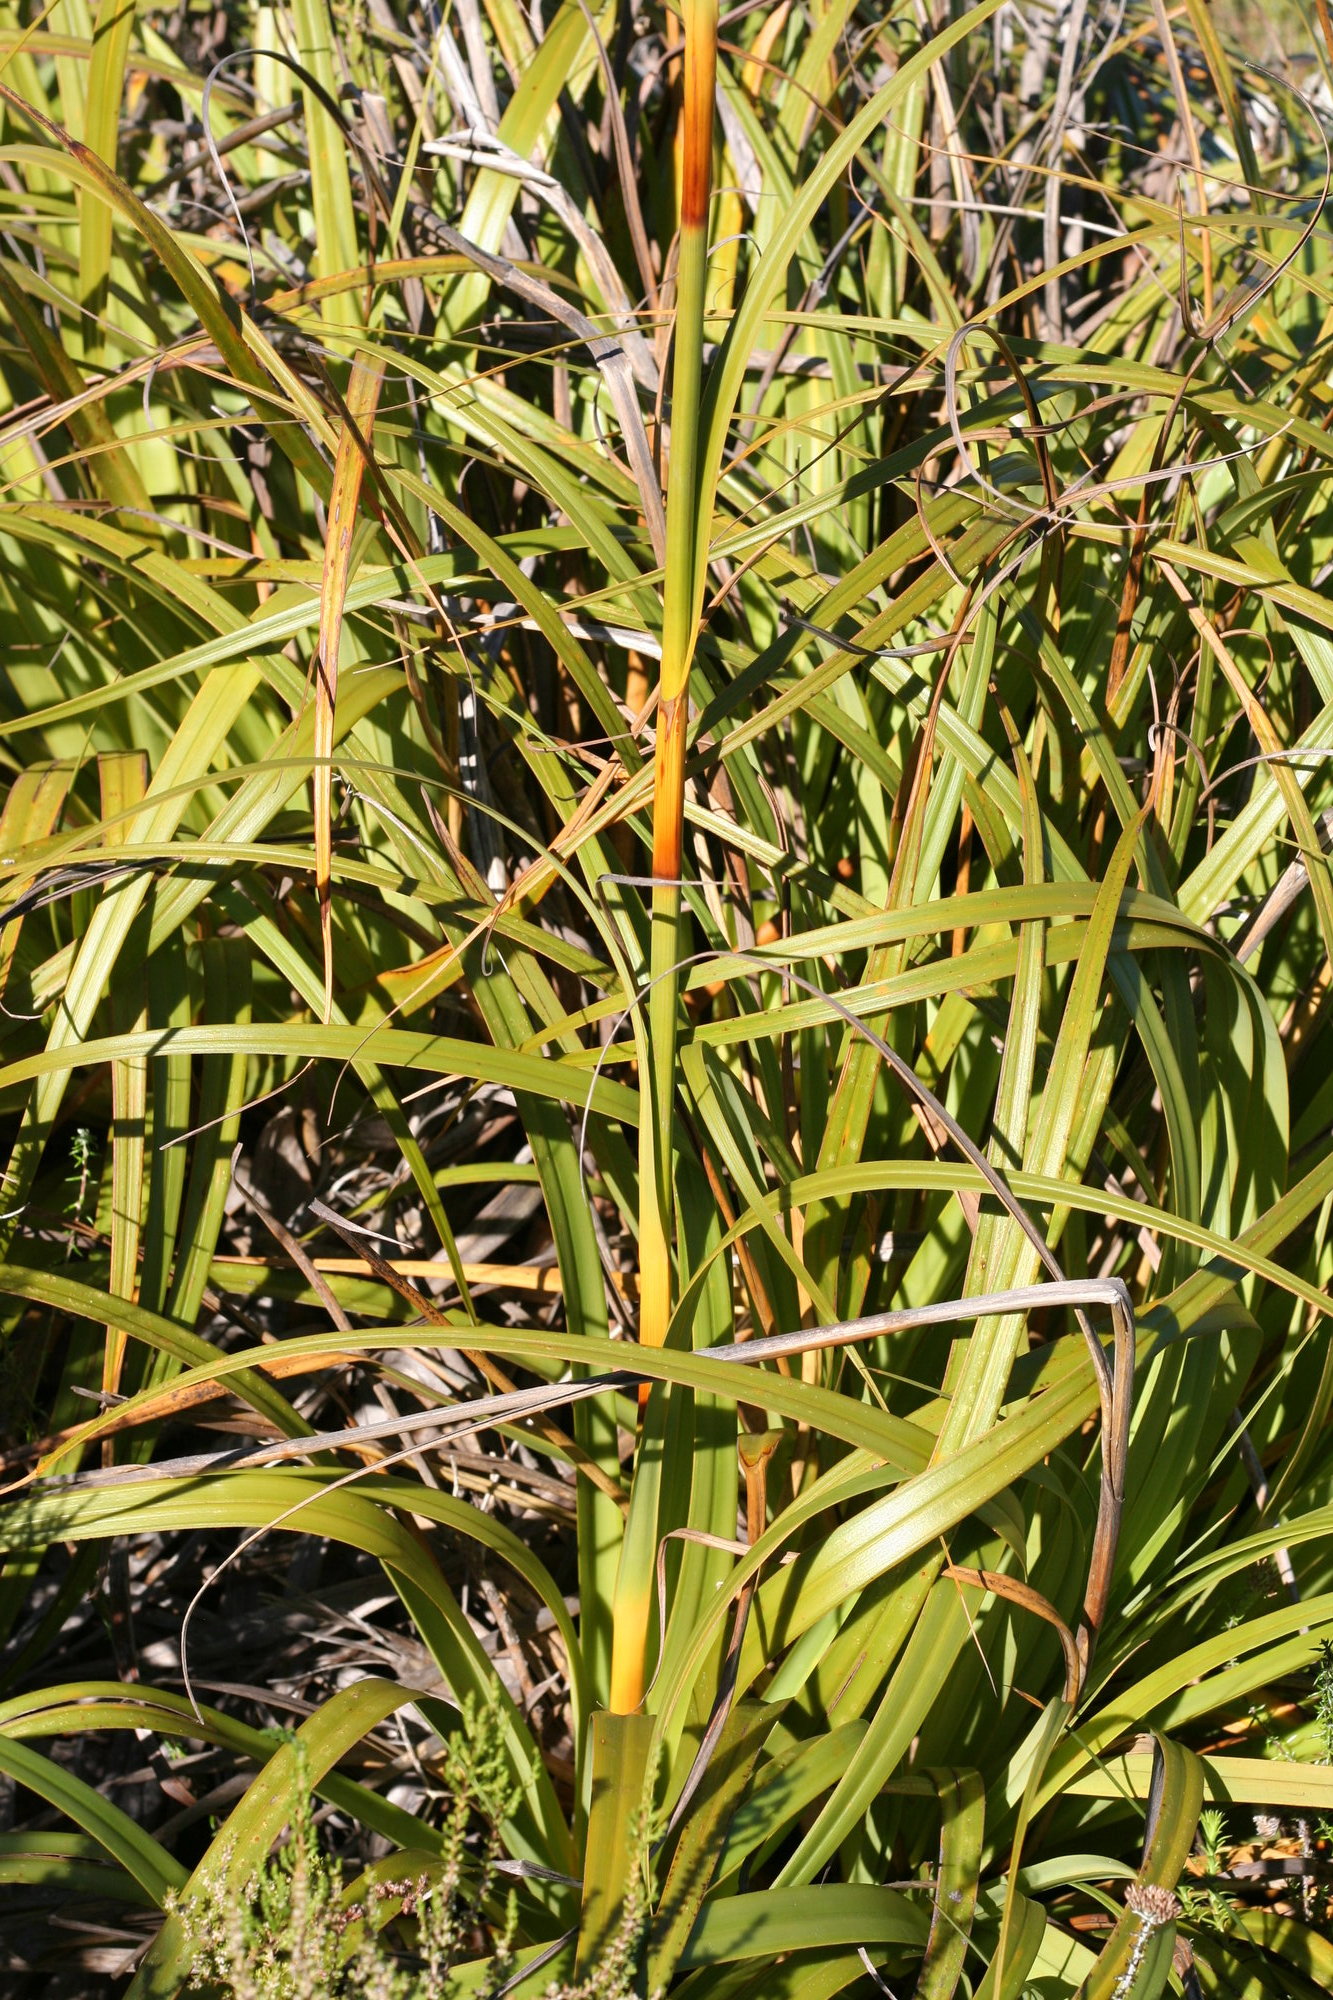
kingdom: Plantae
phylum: Tracheophyta
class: Liliopsida
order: Poales
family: Cyperaceae
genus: Tetraria
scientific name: Tetraria thermalis
